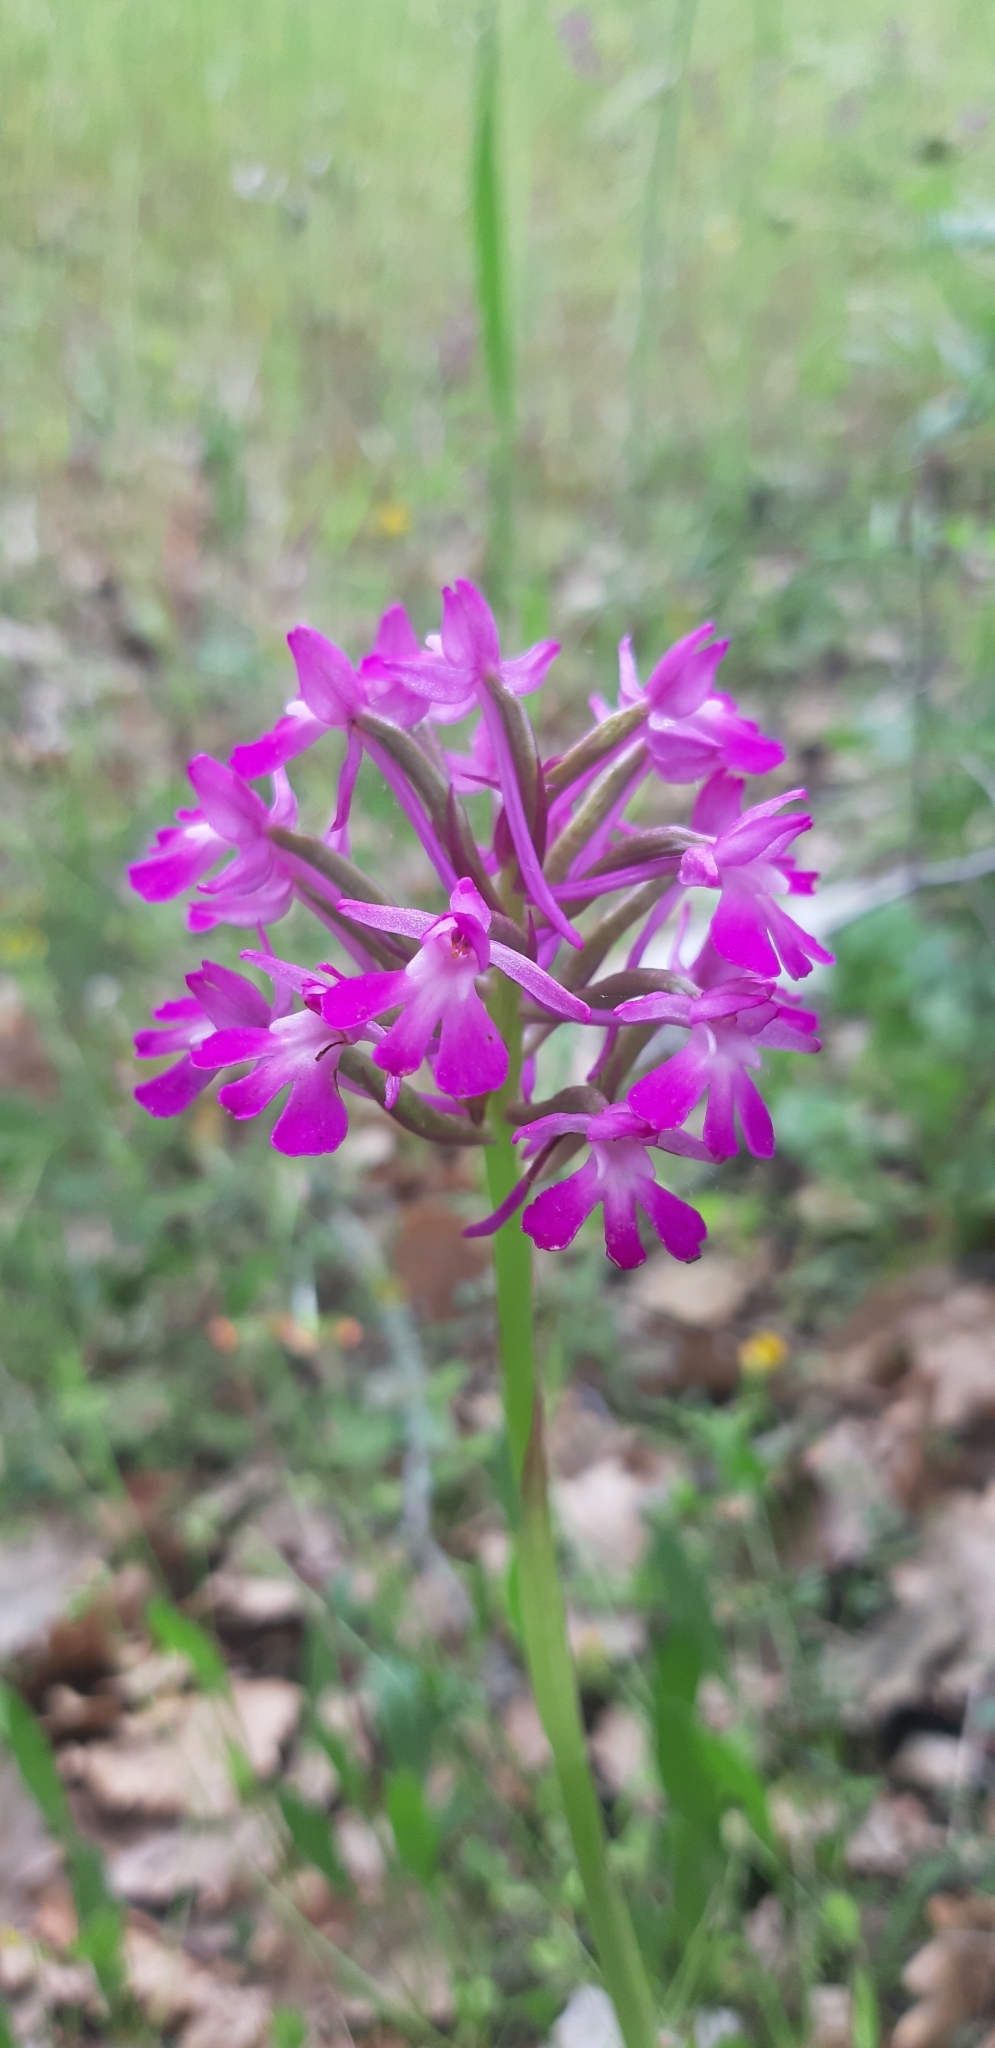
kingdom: Plantae
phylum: Tracheophyta
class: Liliopsida
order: Asparagales
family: Orchidaceae
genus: Anacamptis
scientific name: Anacamptis pyramidalis
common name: Pyramidal orchid
